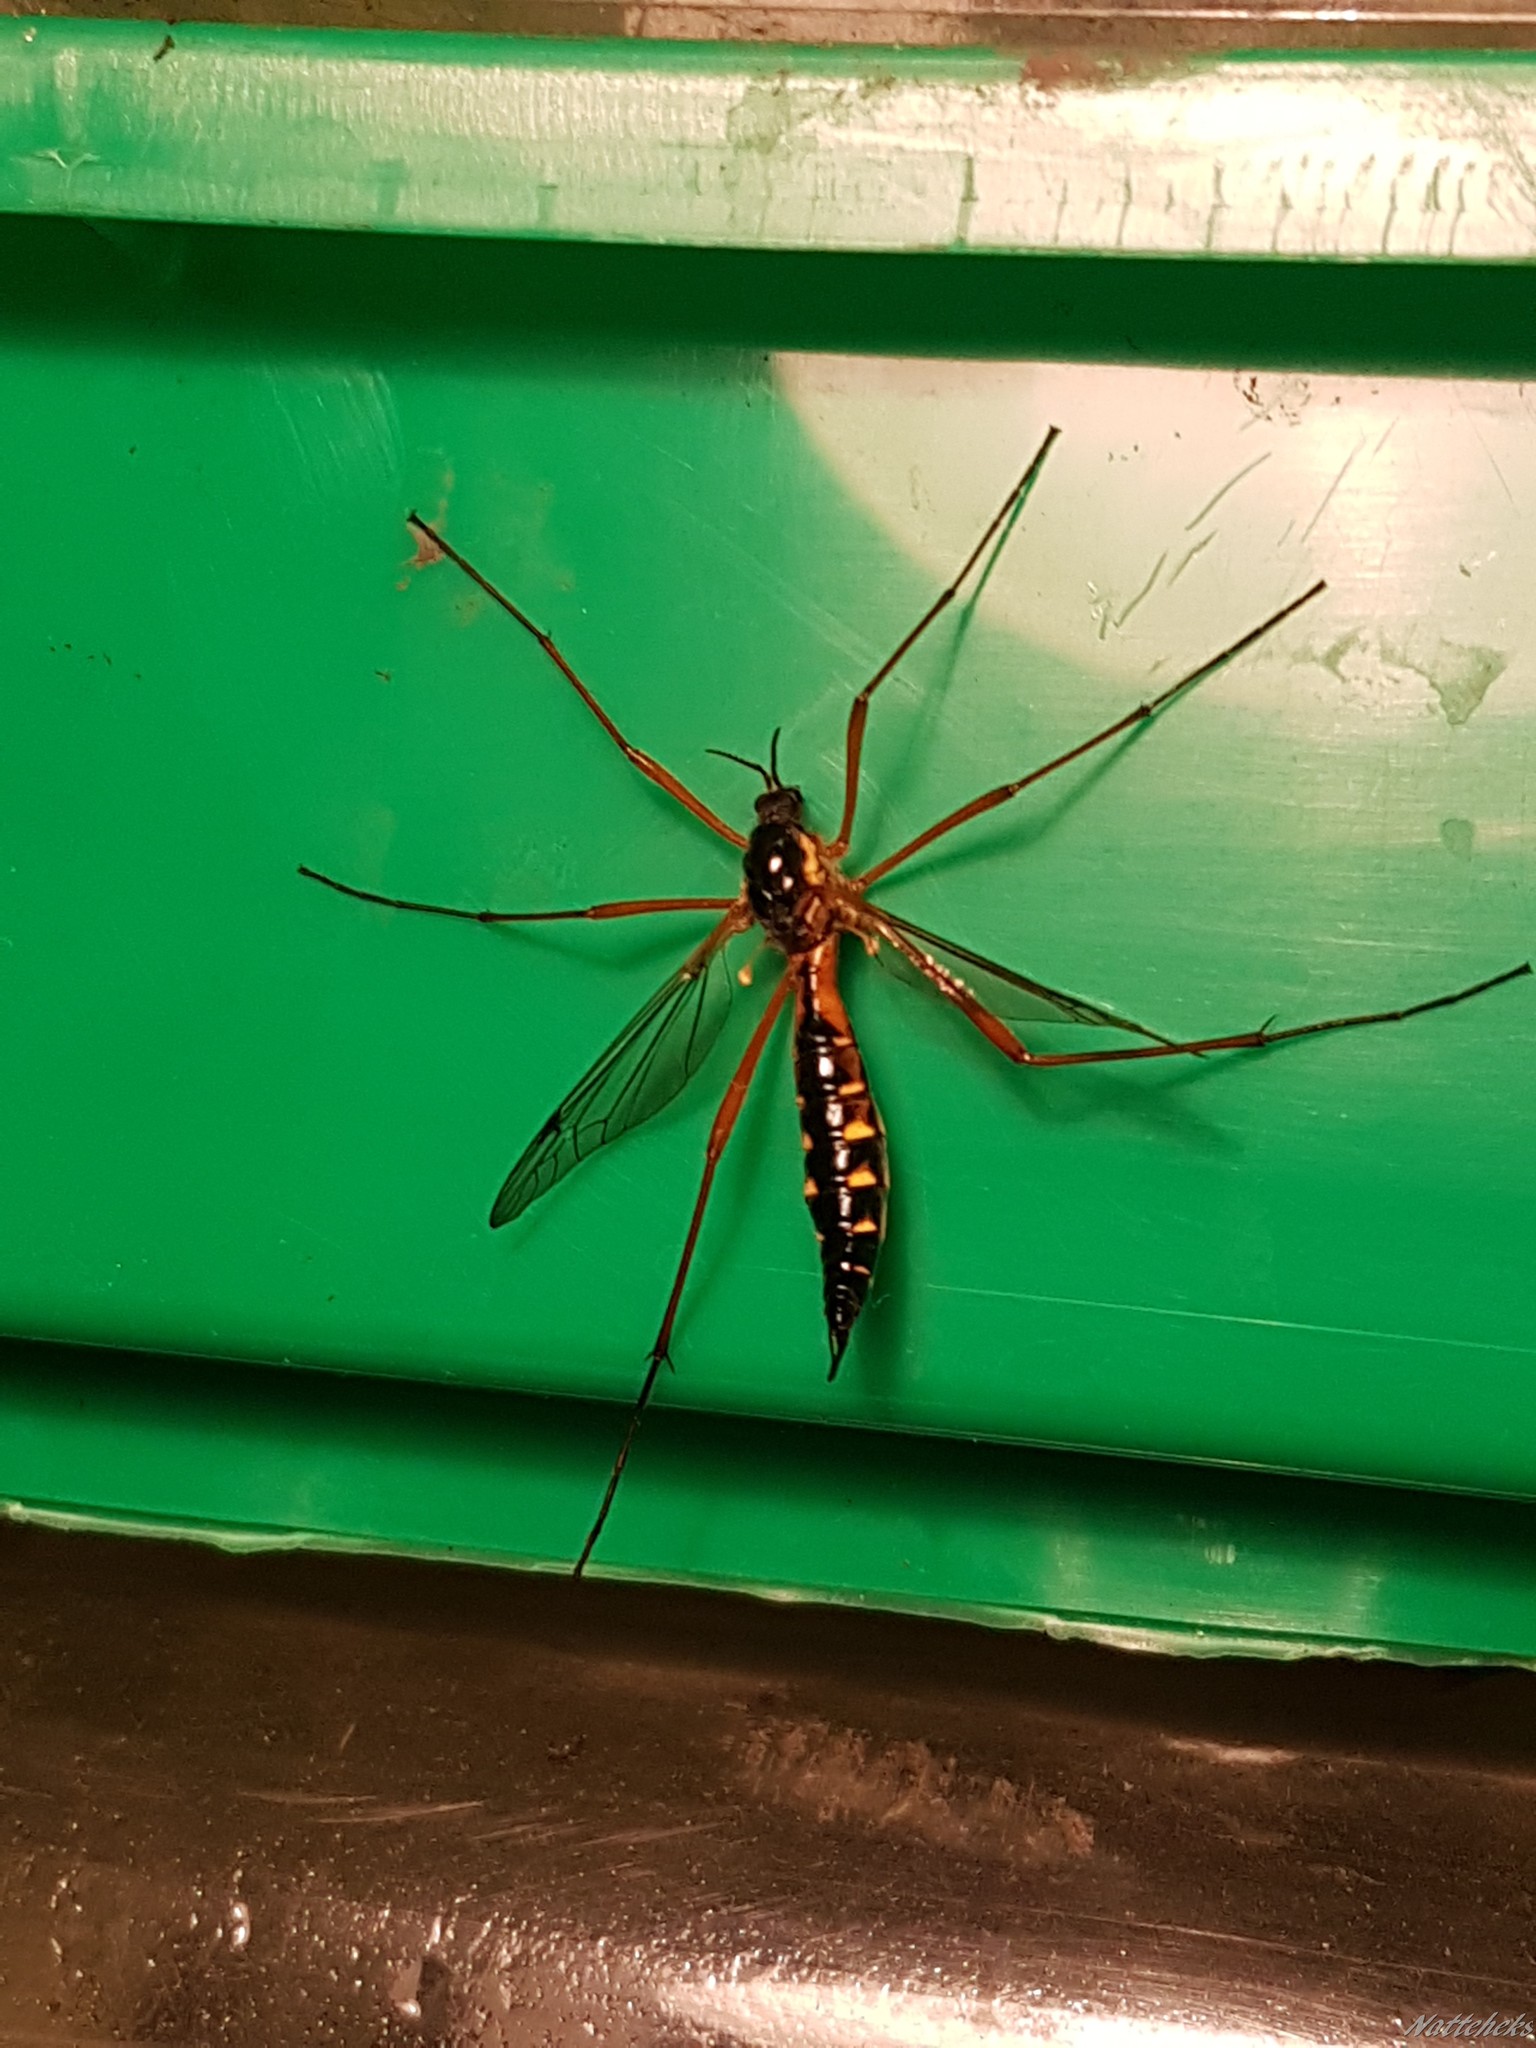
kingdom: Animalia
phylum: Arthropoda
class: Insecta
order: Diptera
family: Tipulidae
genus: Ctenophora
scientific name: Ctenophora pectinicornis
